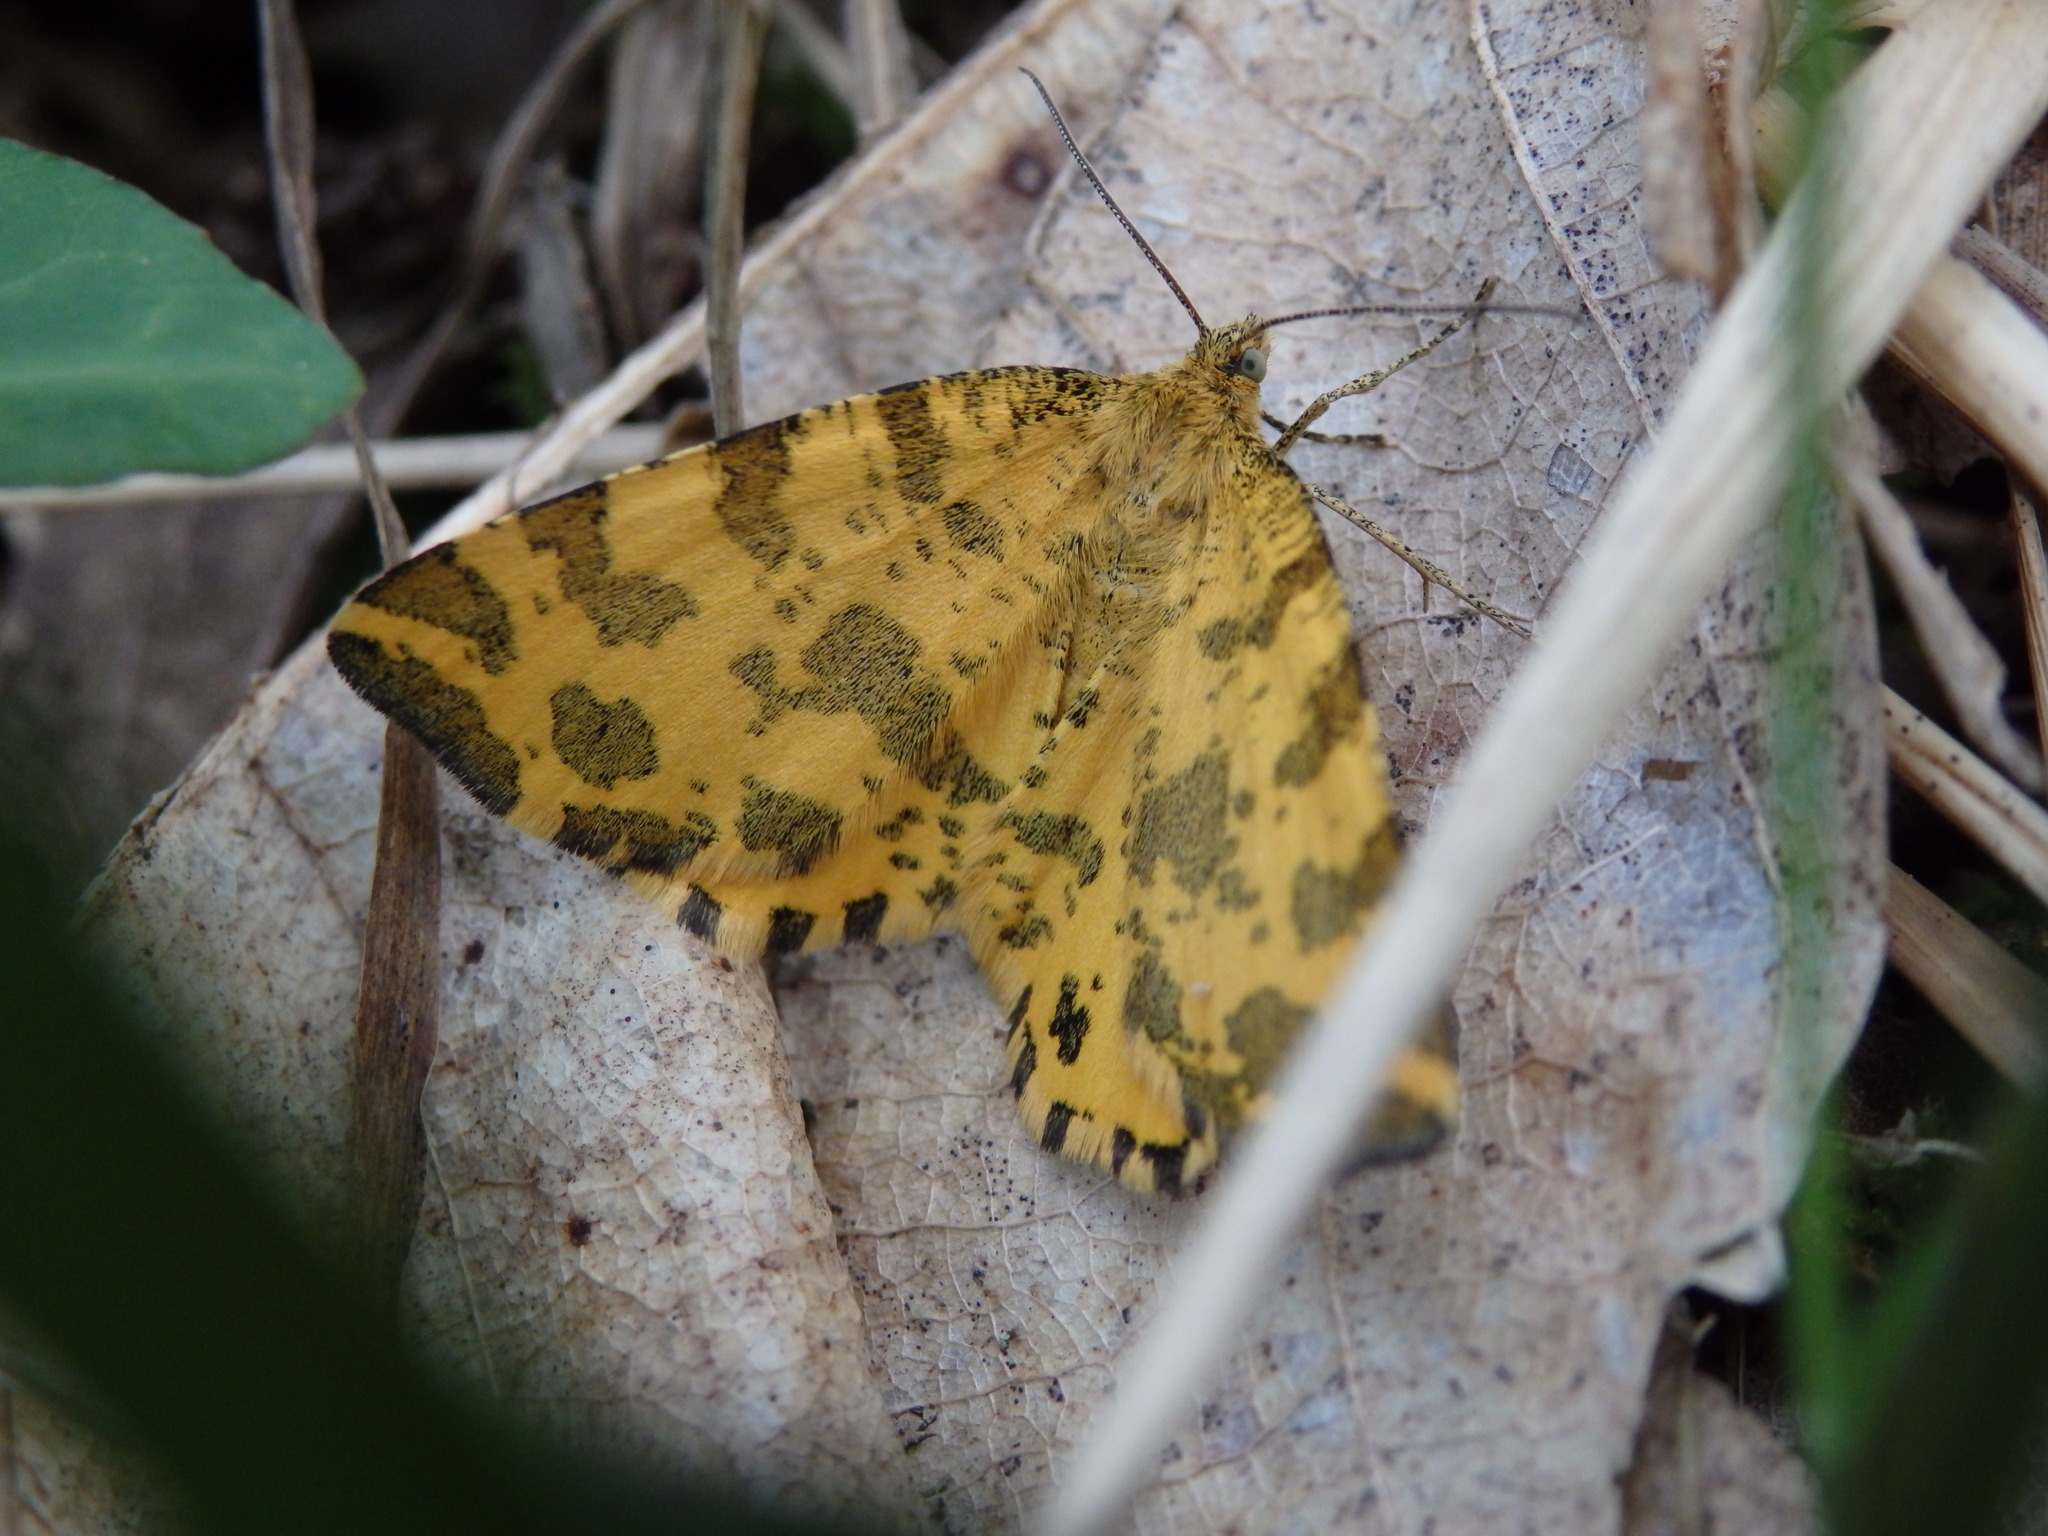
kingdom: Animalia
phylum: Arthropoda
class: Insecta
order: Lepidoptera
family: Geometridae
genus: Pseudopanthera
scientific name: Pseudopanthera macularia
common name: Speckled yellow
